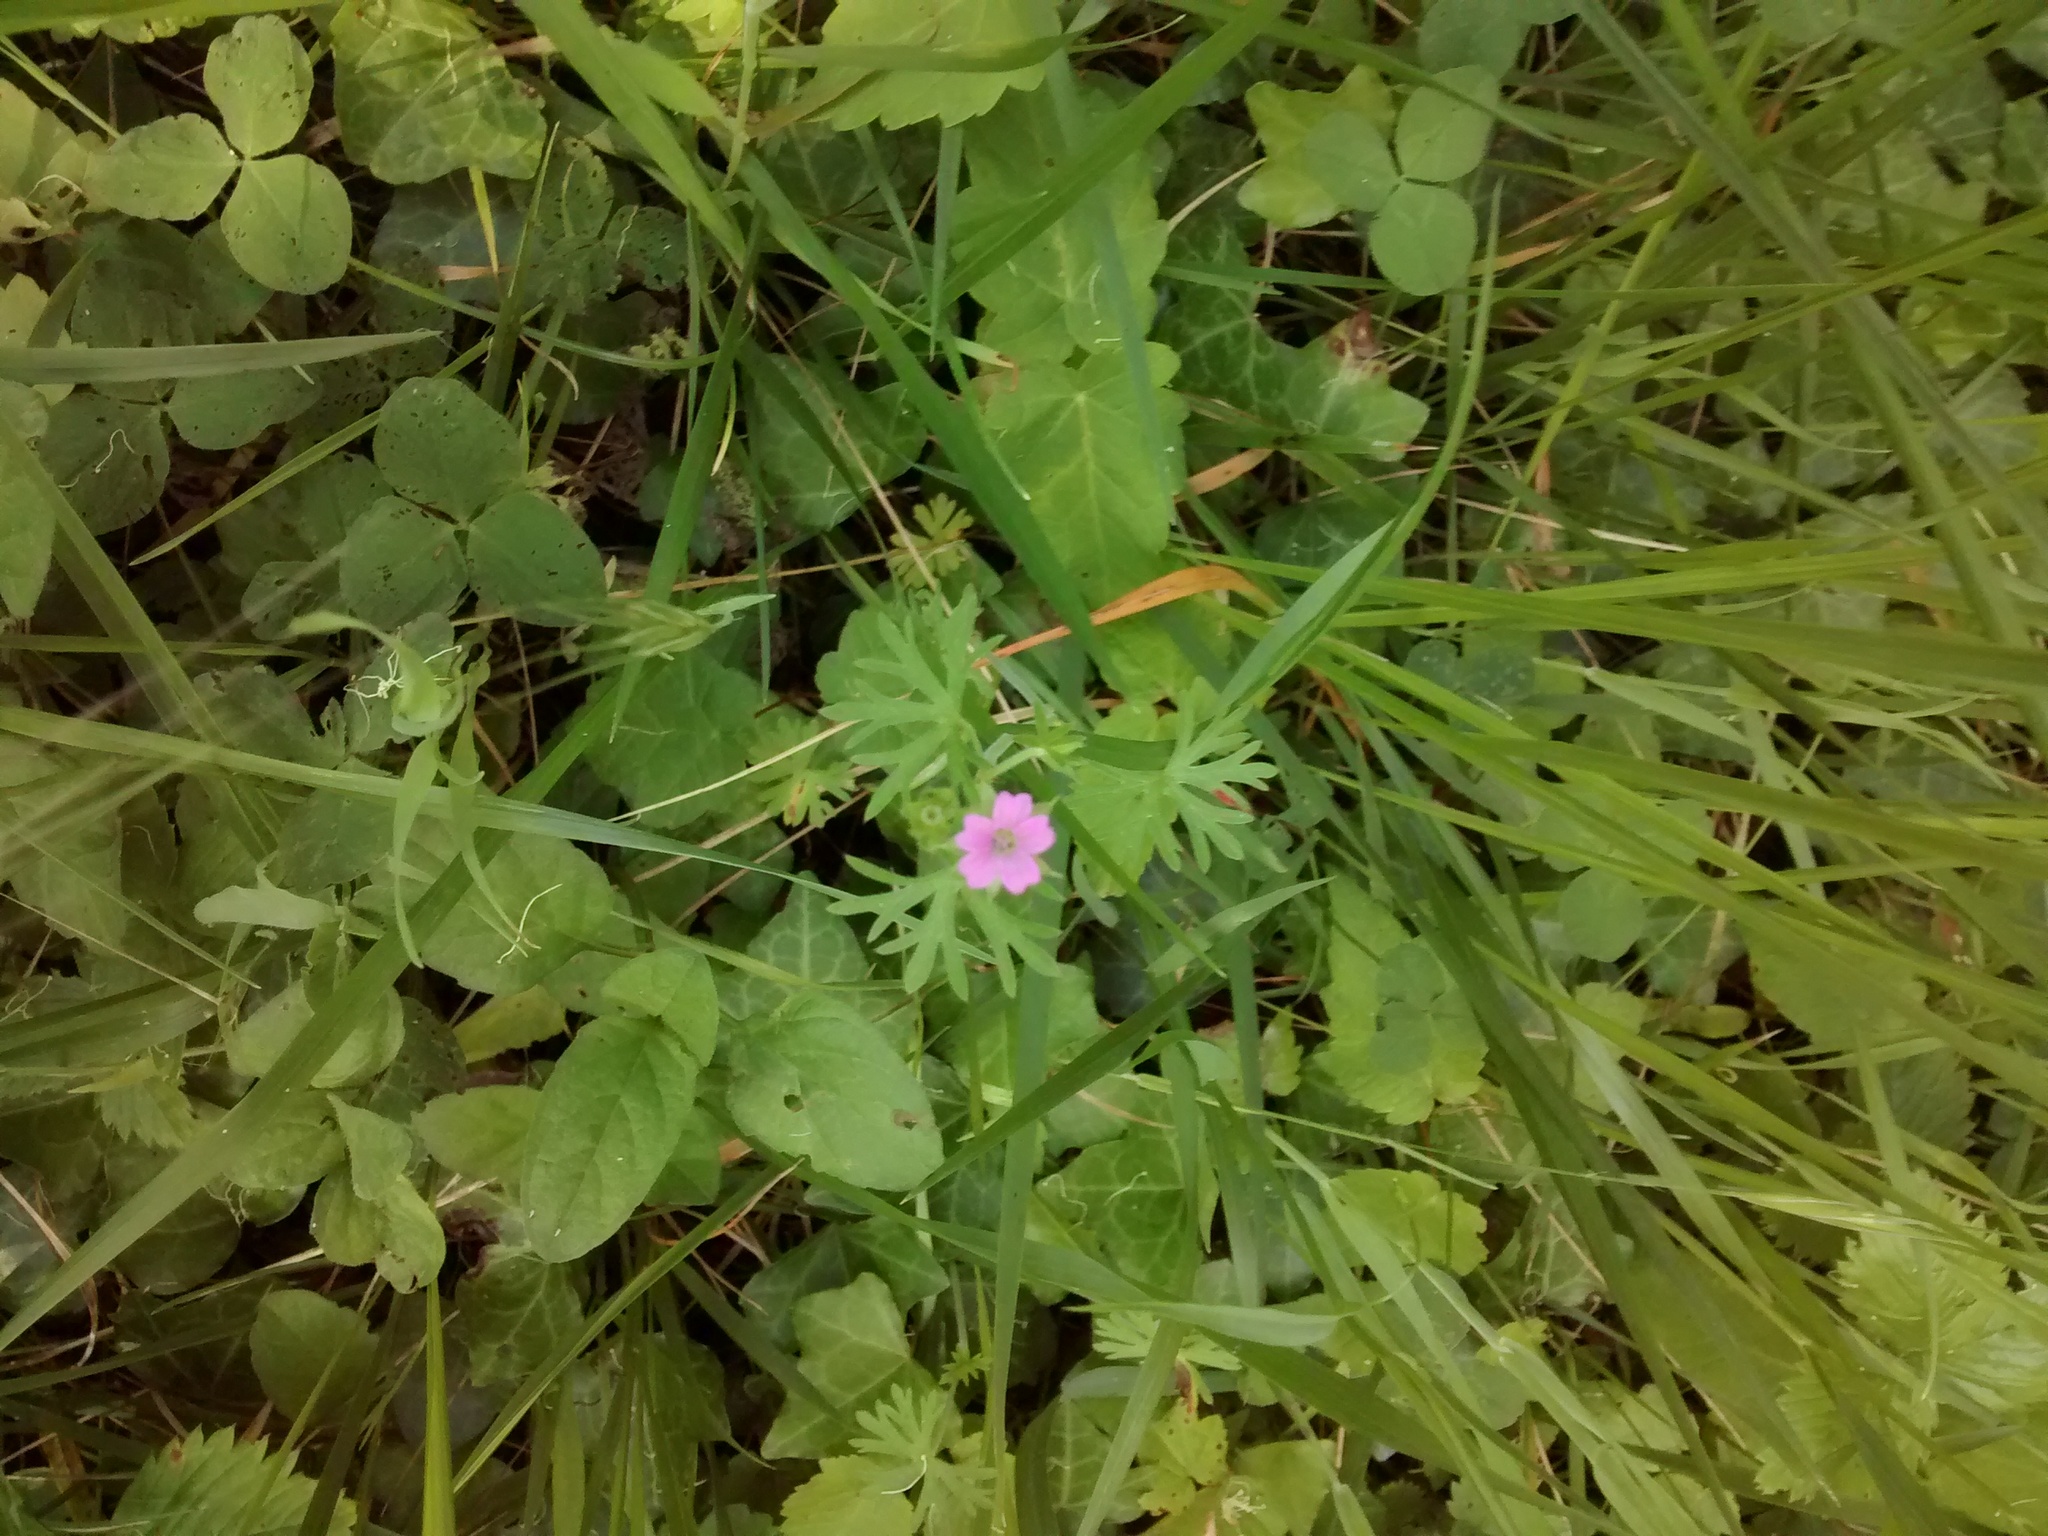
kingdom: Plantae
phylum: Tracheophyta
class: Magnoliopsida
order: Geraniales
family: Geraniaceae
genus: Geranium
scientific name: Geranium dissectum
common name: Cut-leaved crane's-bill
